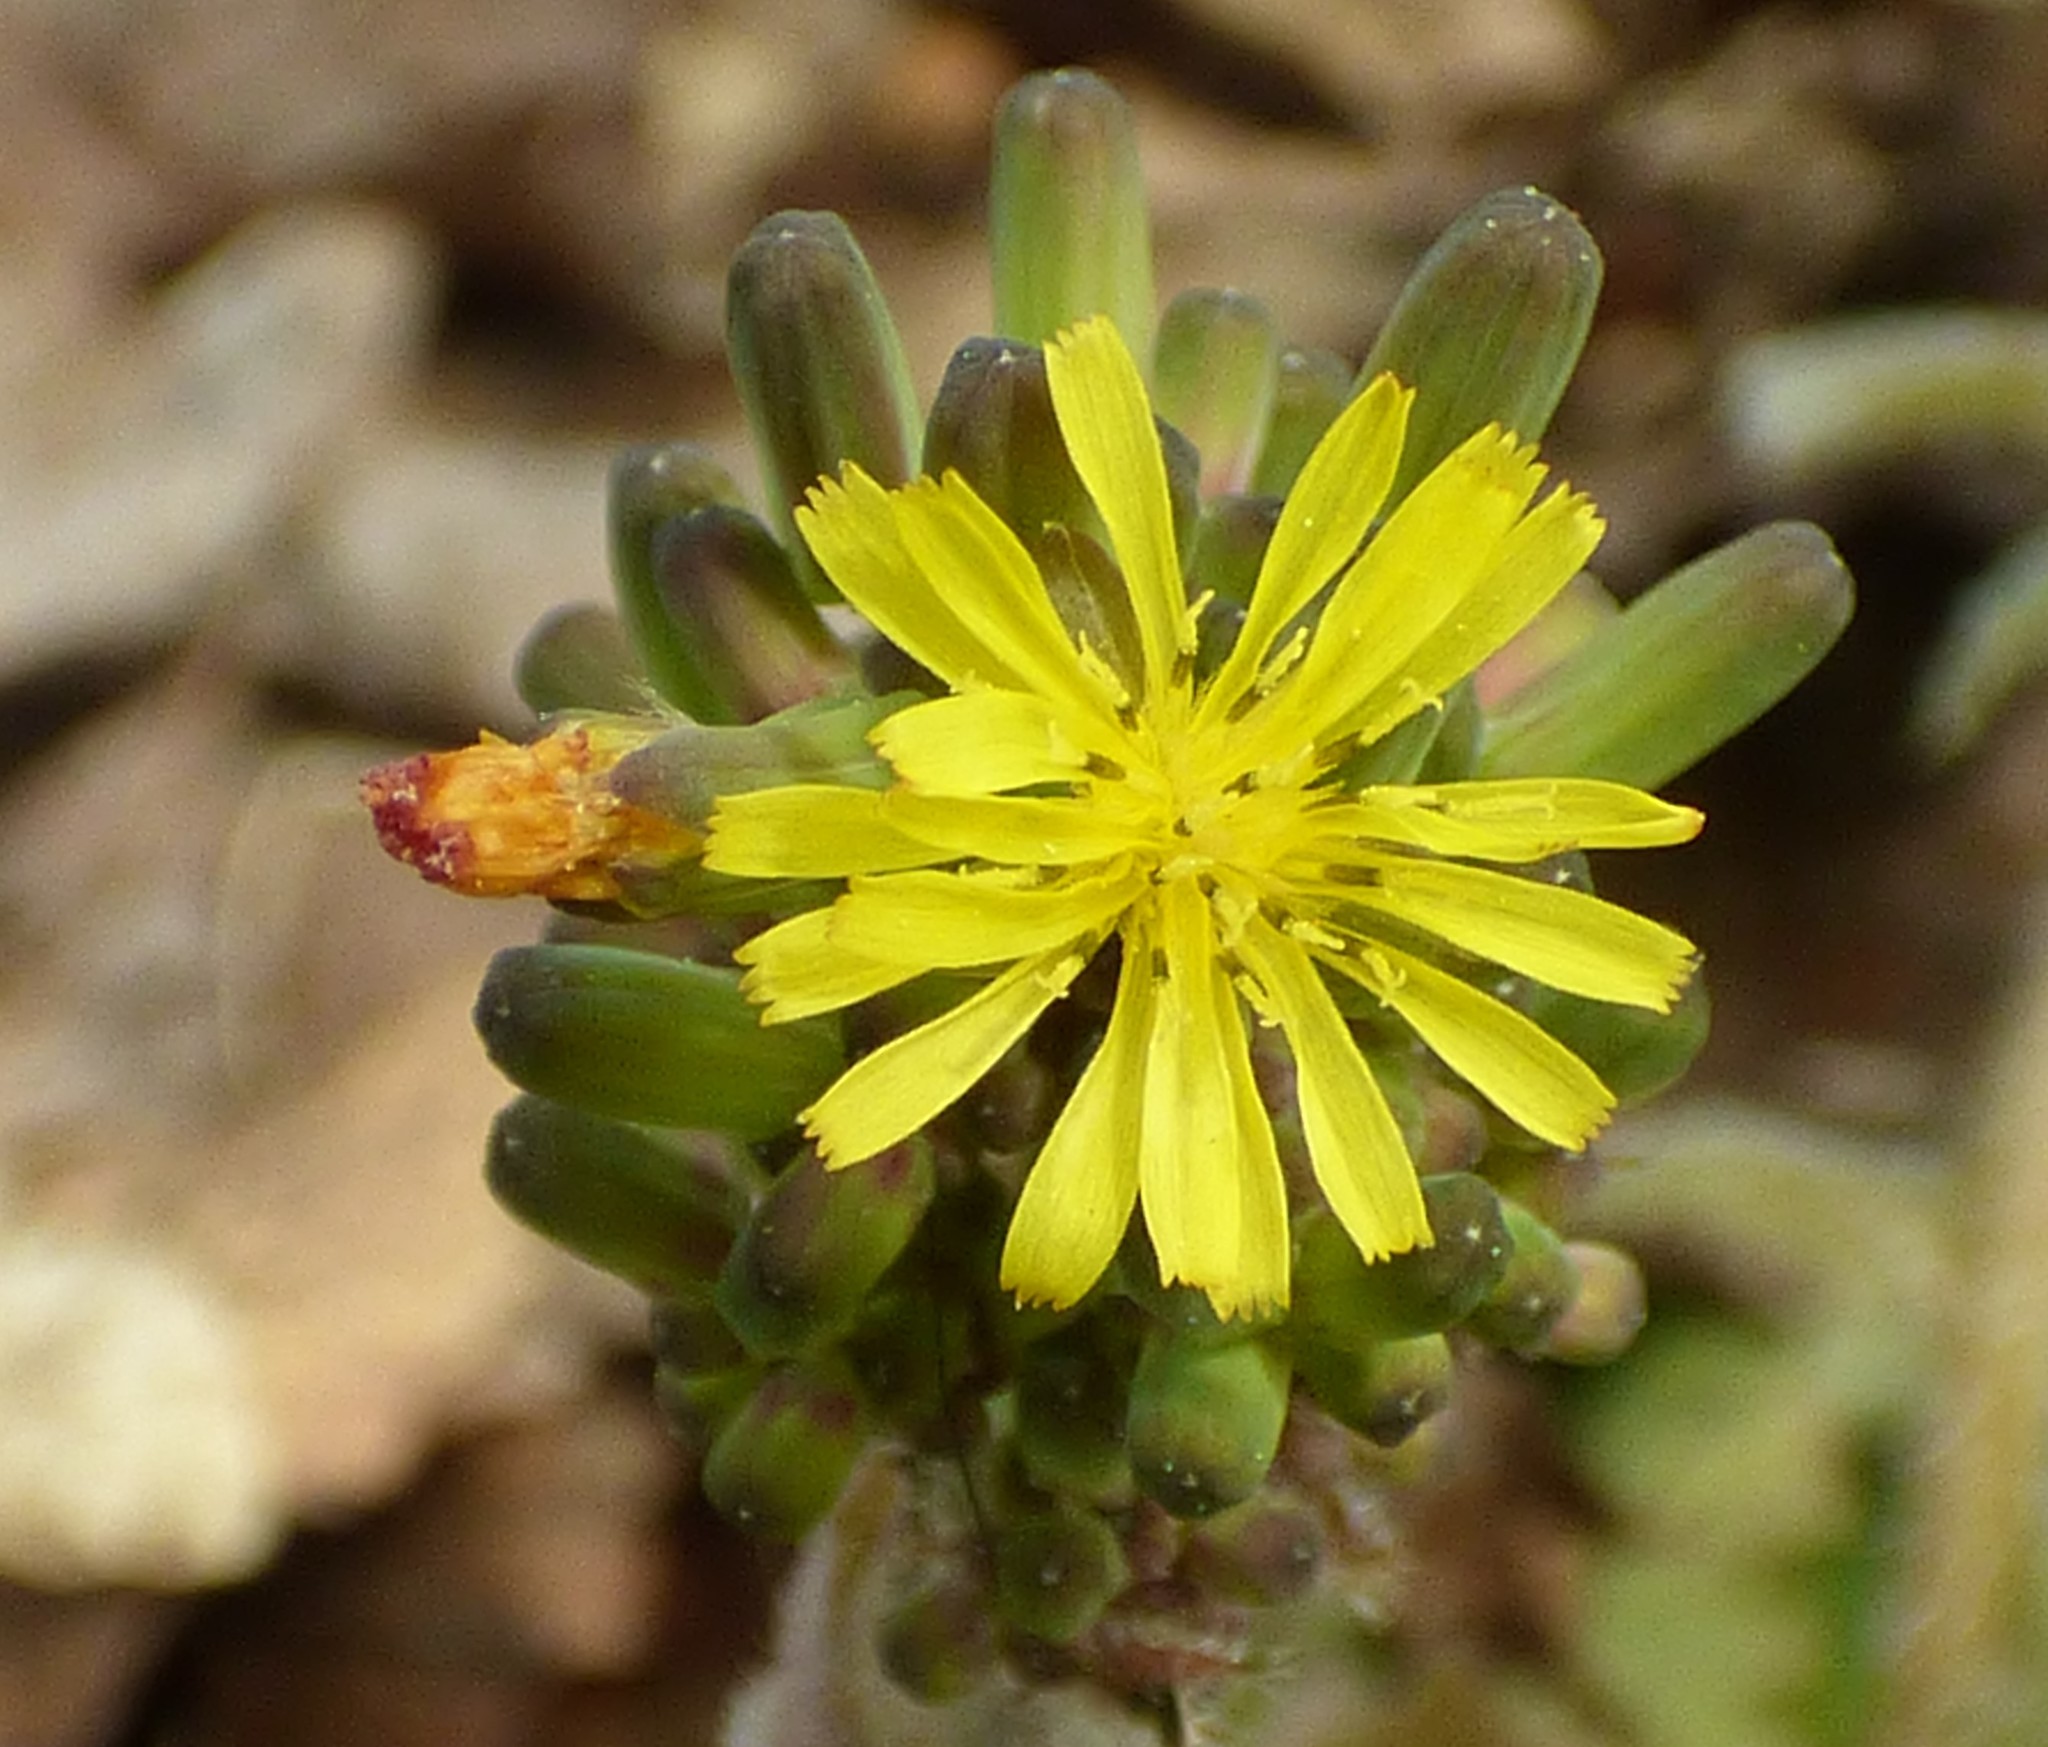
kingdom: Plantae
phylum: Tracheophyta
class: Magnoliopsida
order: Asterales
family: Asteraceae
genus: Youngia
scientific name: Youngia japonica
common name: Oriental false hawksbeard
